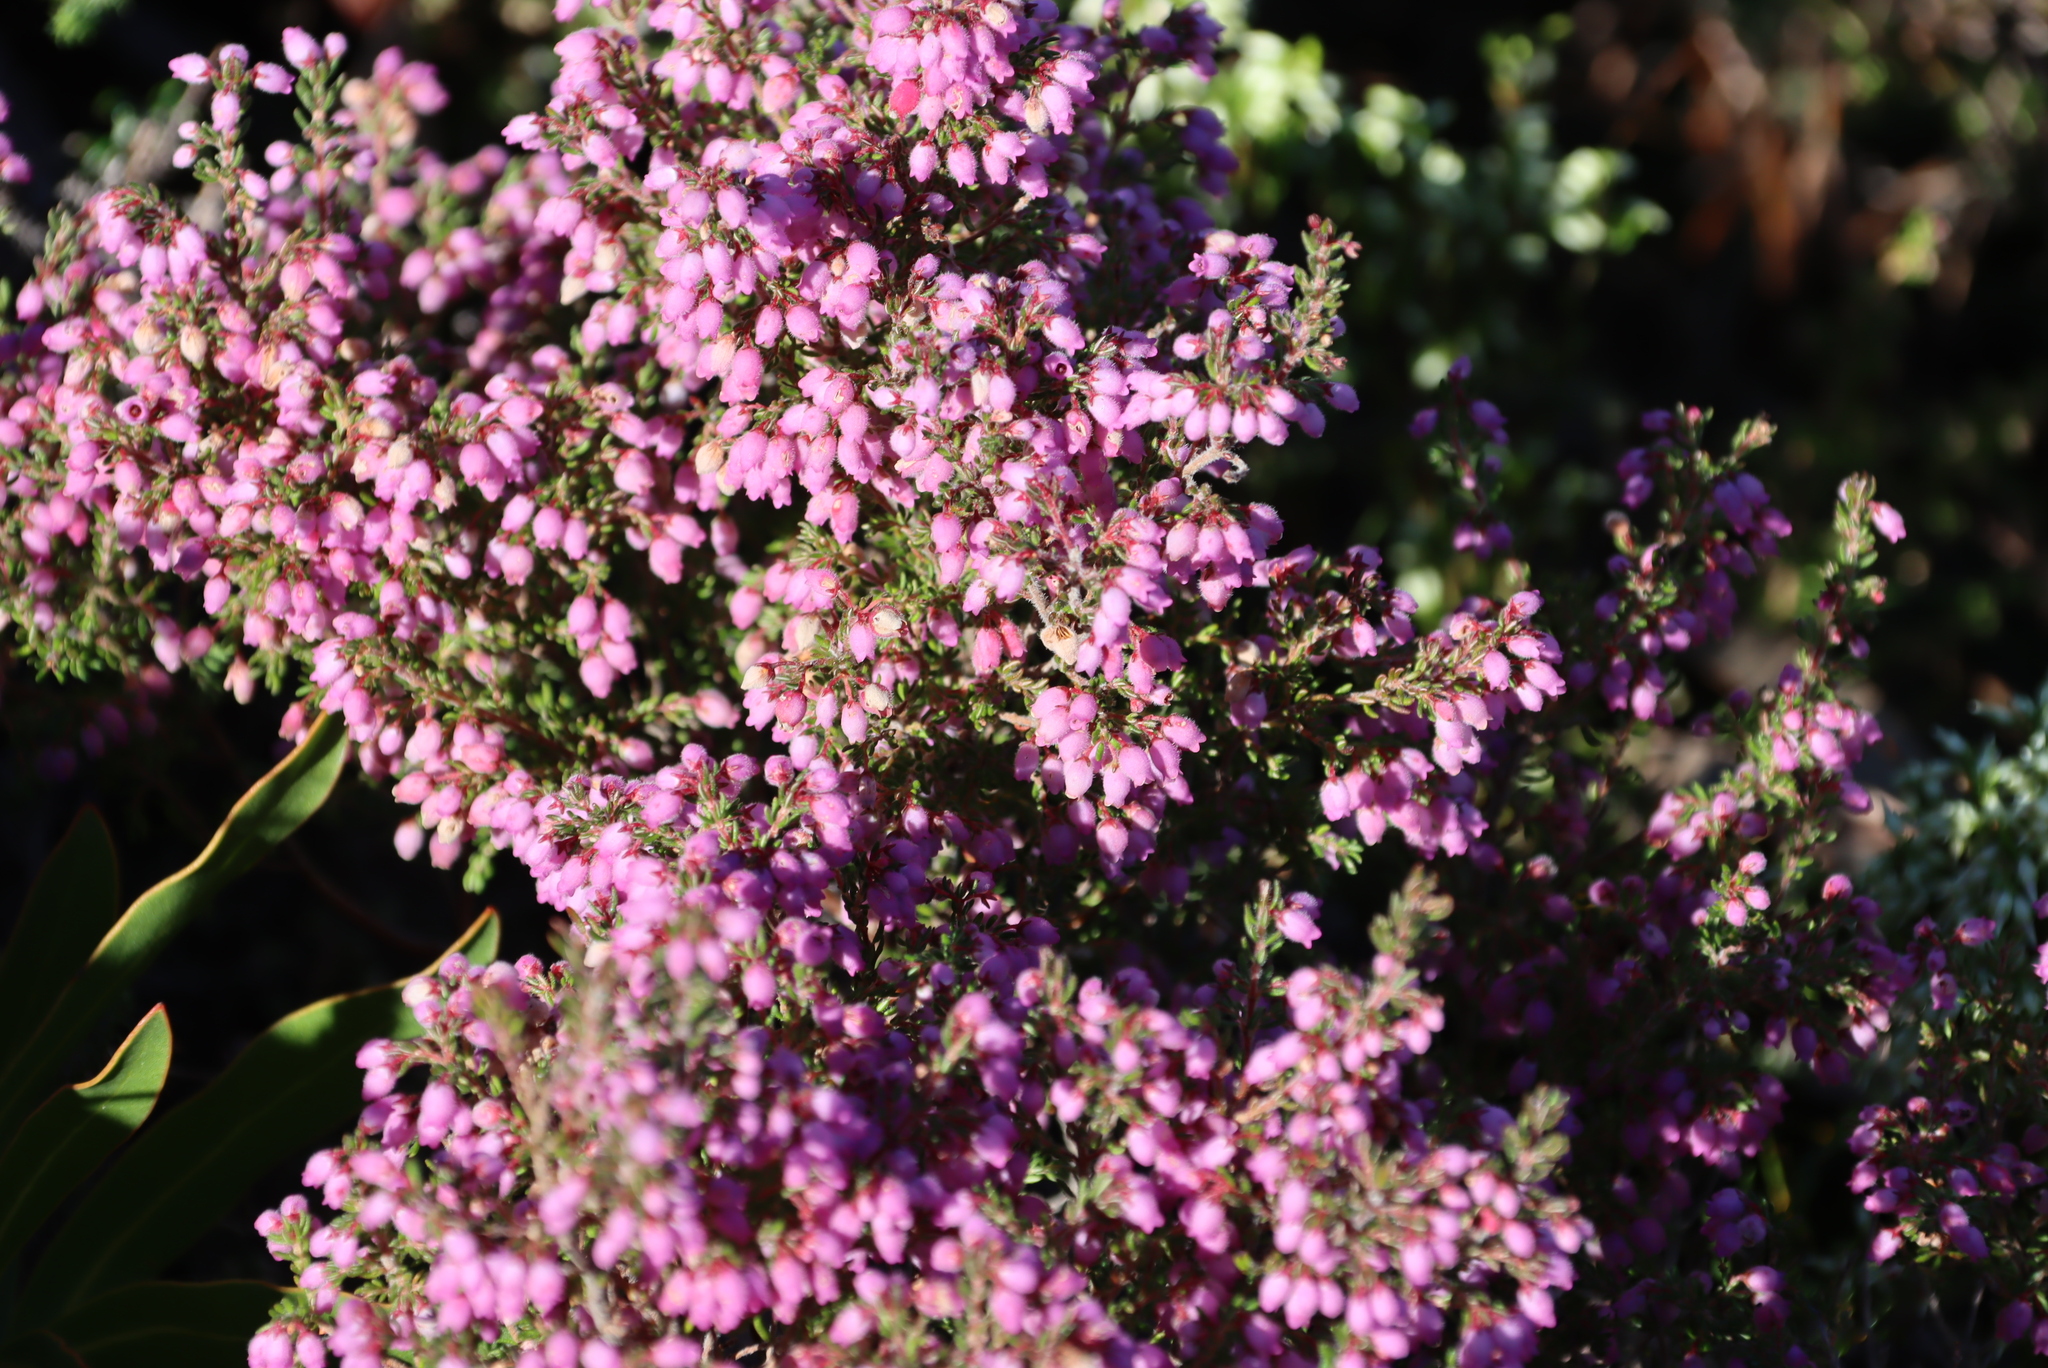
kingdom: Plantae
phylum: Tracheophyta
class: Magnoliopsida
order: Ericales
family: Ericaceae
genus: Erica
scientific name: Erica hirtiflora
